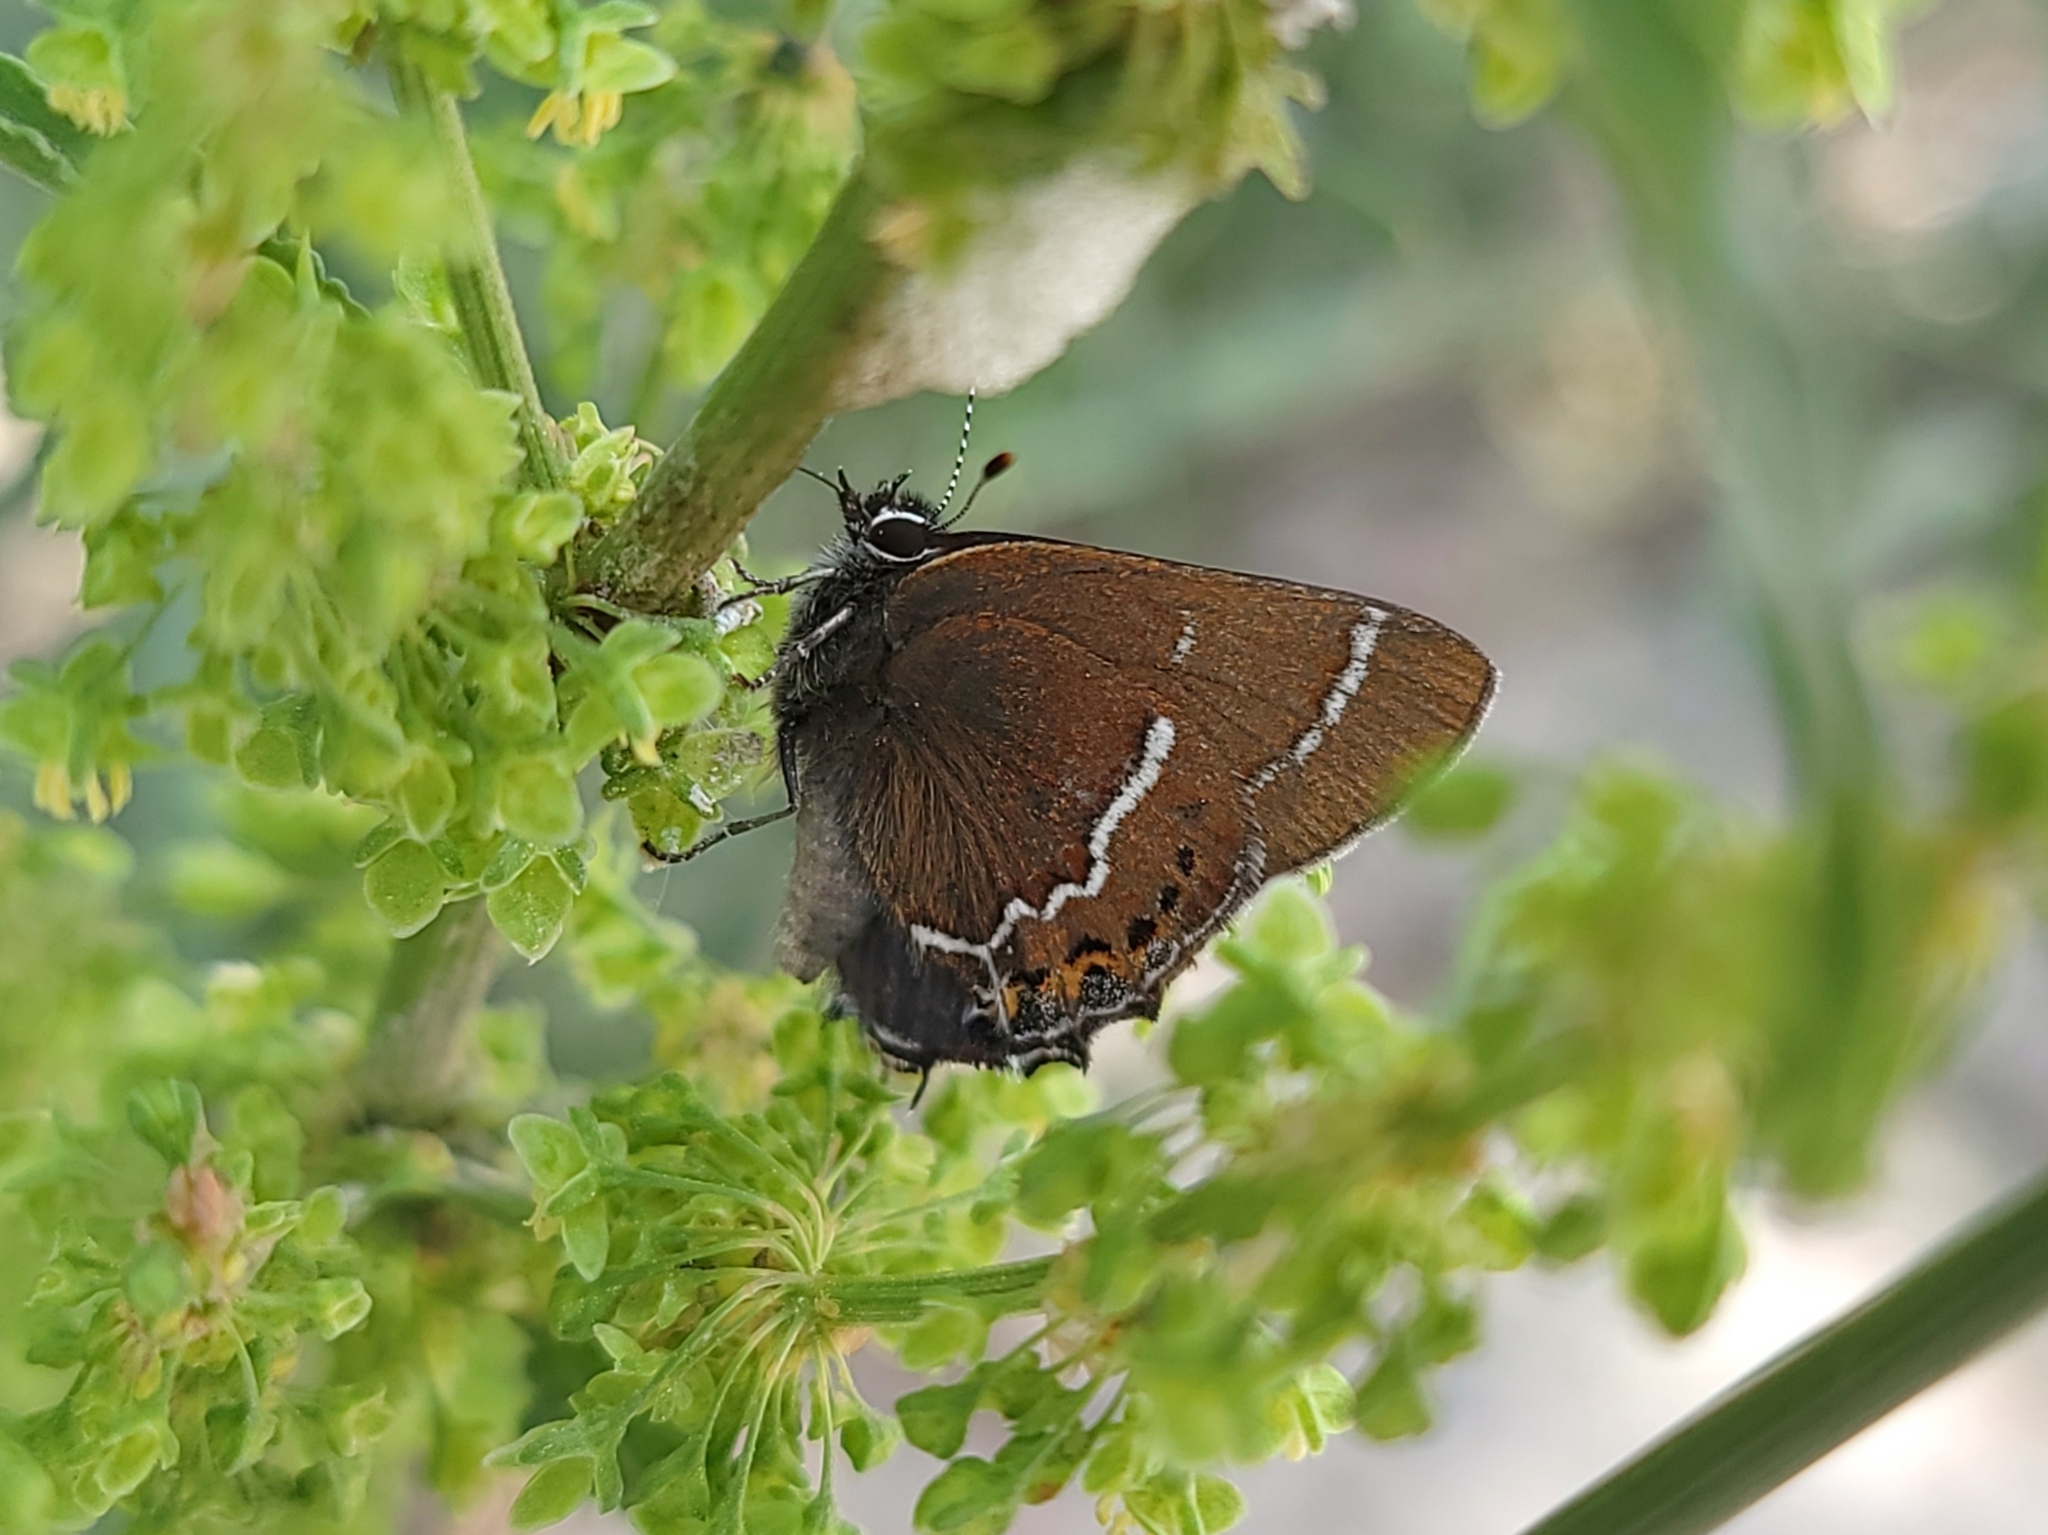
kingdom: Animalia
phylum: Arthropoda
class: Insecta
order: Lepidoptera
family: Lycaenidae
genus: Mitoura
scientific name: Mitoura spinetorum
